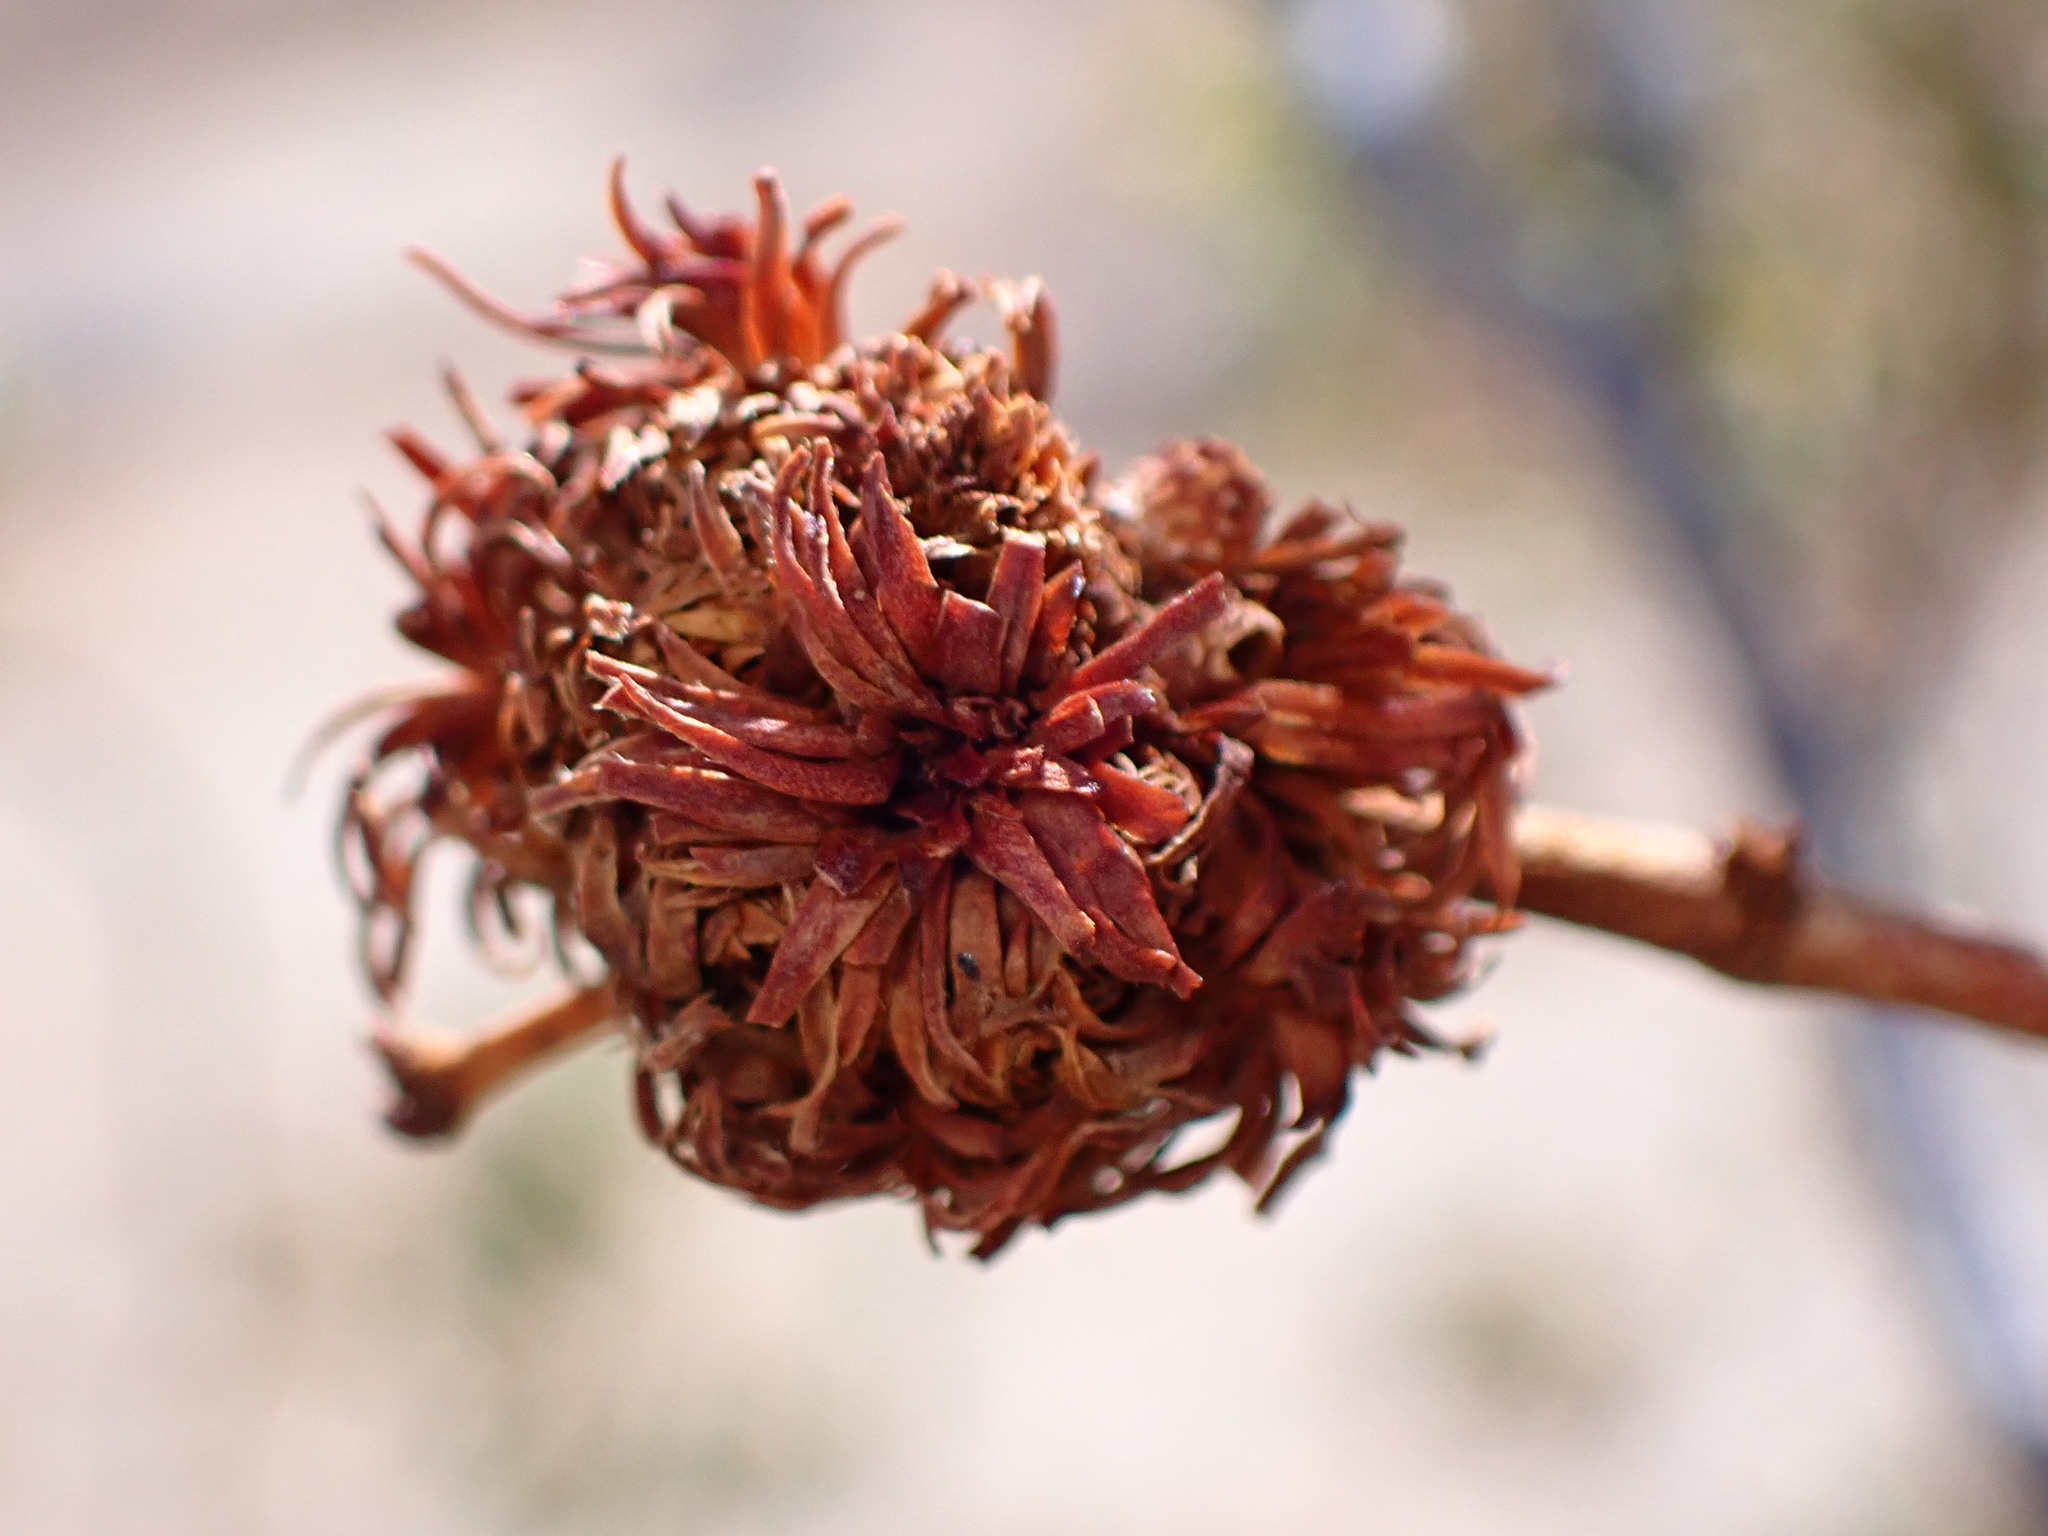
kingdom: Animalia
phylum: Arthropoda
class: Insecta
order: Diptera
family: Cecidomyiidae
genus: Asphondylia
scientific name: Asphondylia auripila
